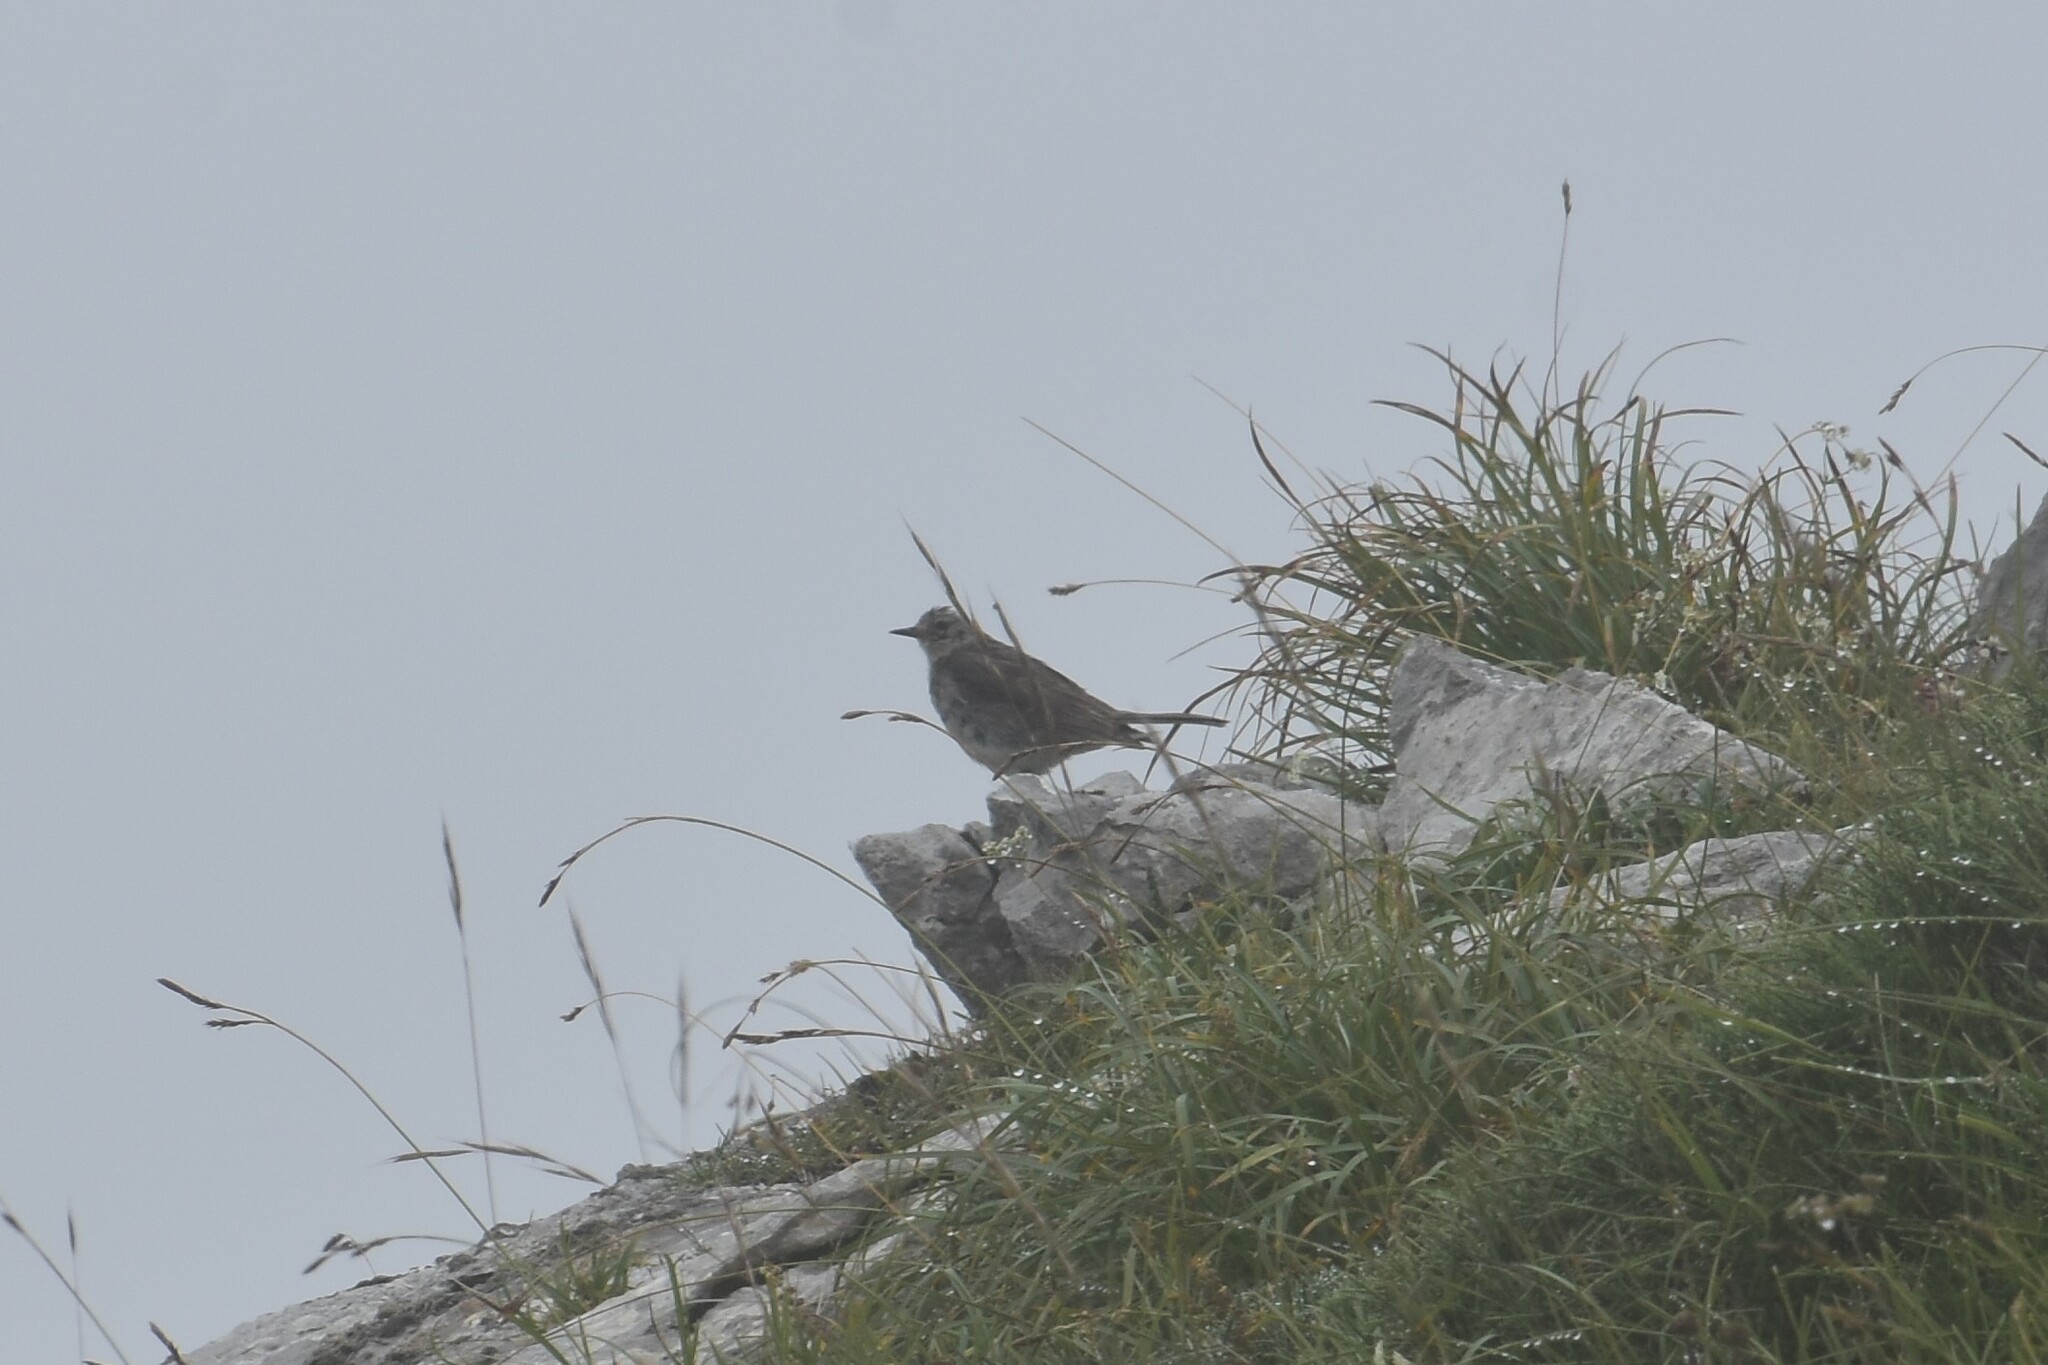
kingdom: Animalia
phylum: Chordata
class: Aves
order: Passeriformes
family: Motacillidae
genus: Anthus
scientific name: Anthus spinoletta
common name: Water pipit
